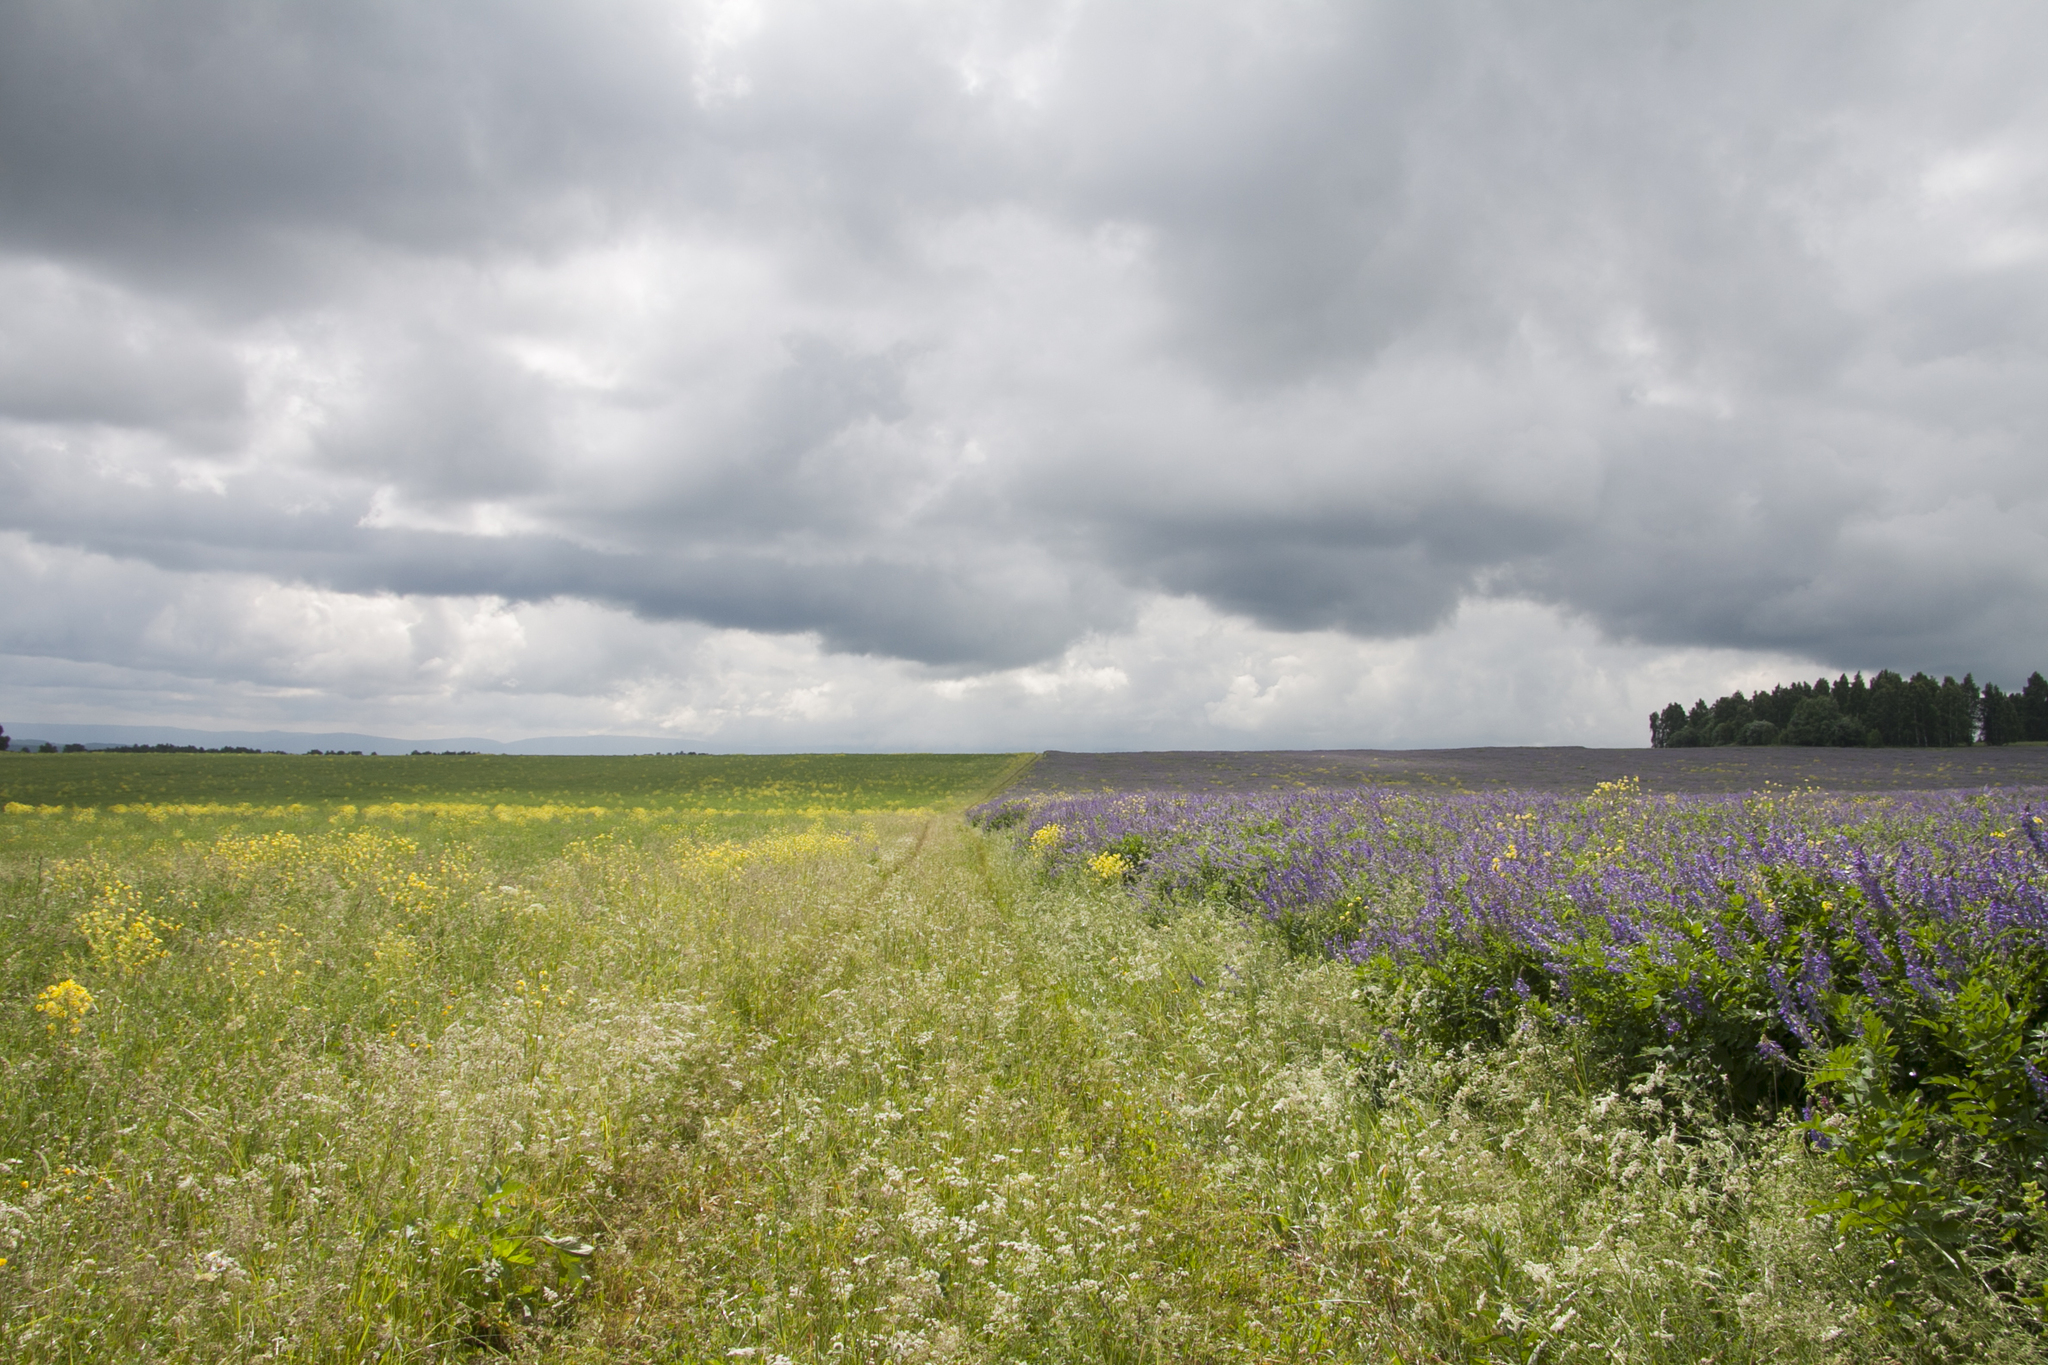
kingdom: Plantae
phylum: Tracheophyta
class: Magnoliopsida
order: Brassicales
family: Brassicaceae
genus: Bunias
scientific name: Bunias orientalis
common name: Warty-cabbage
